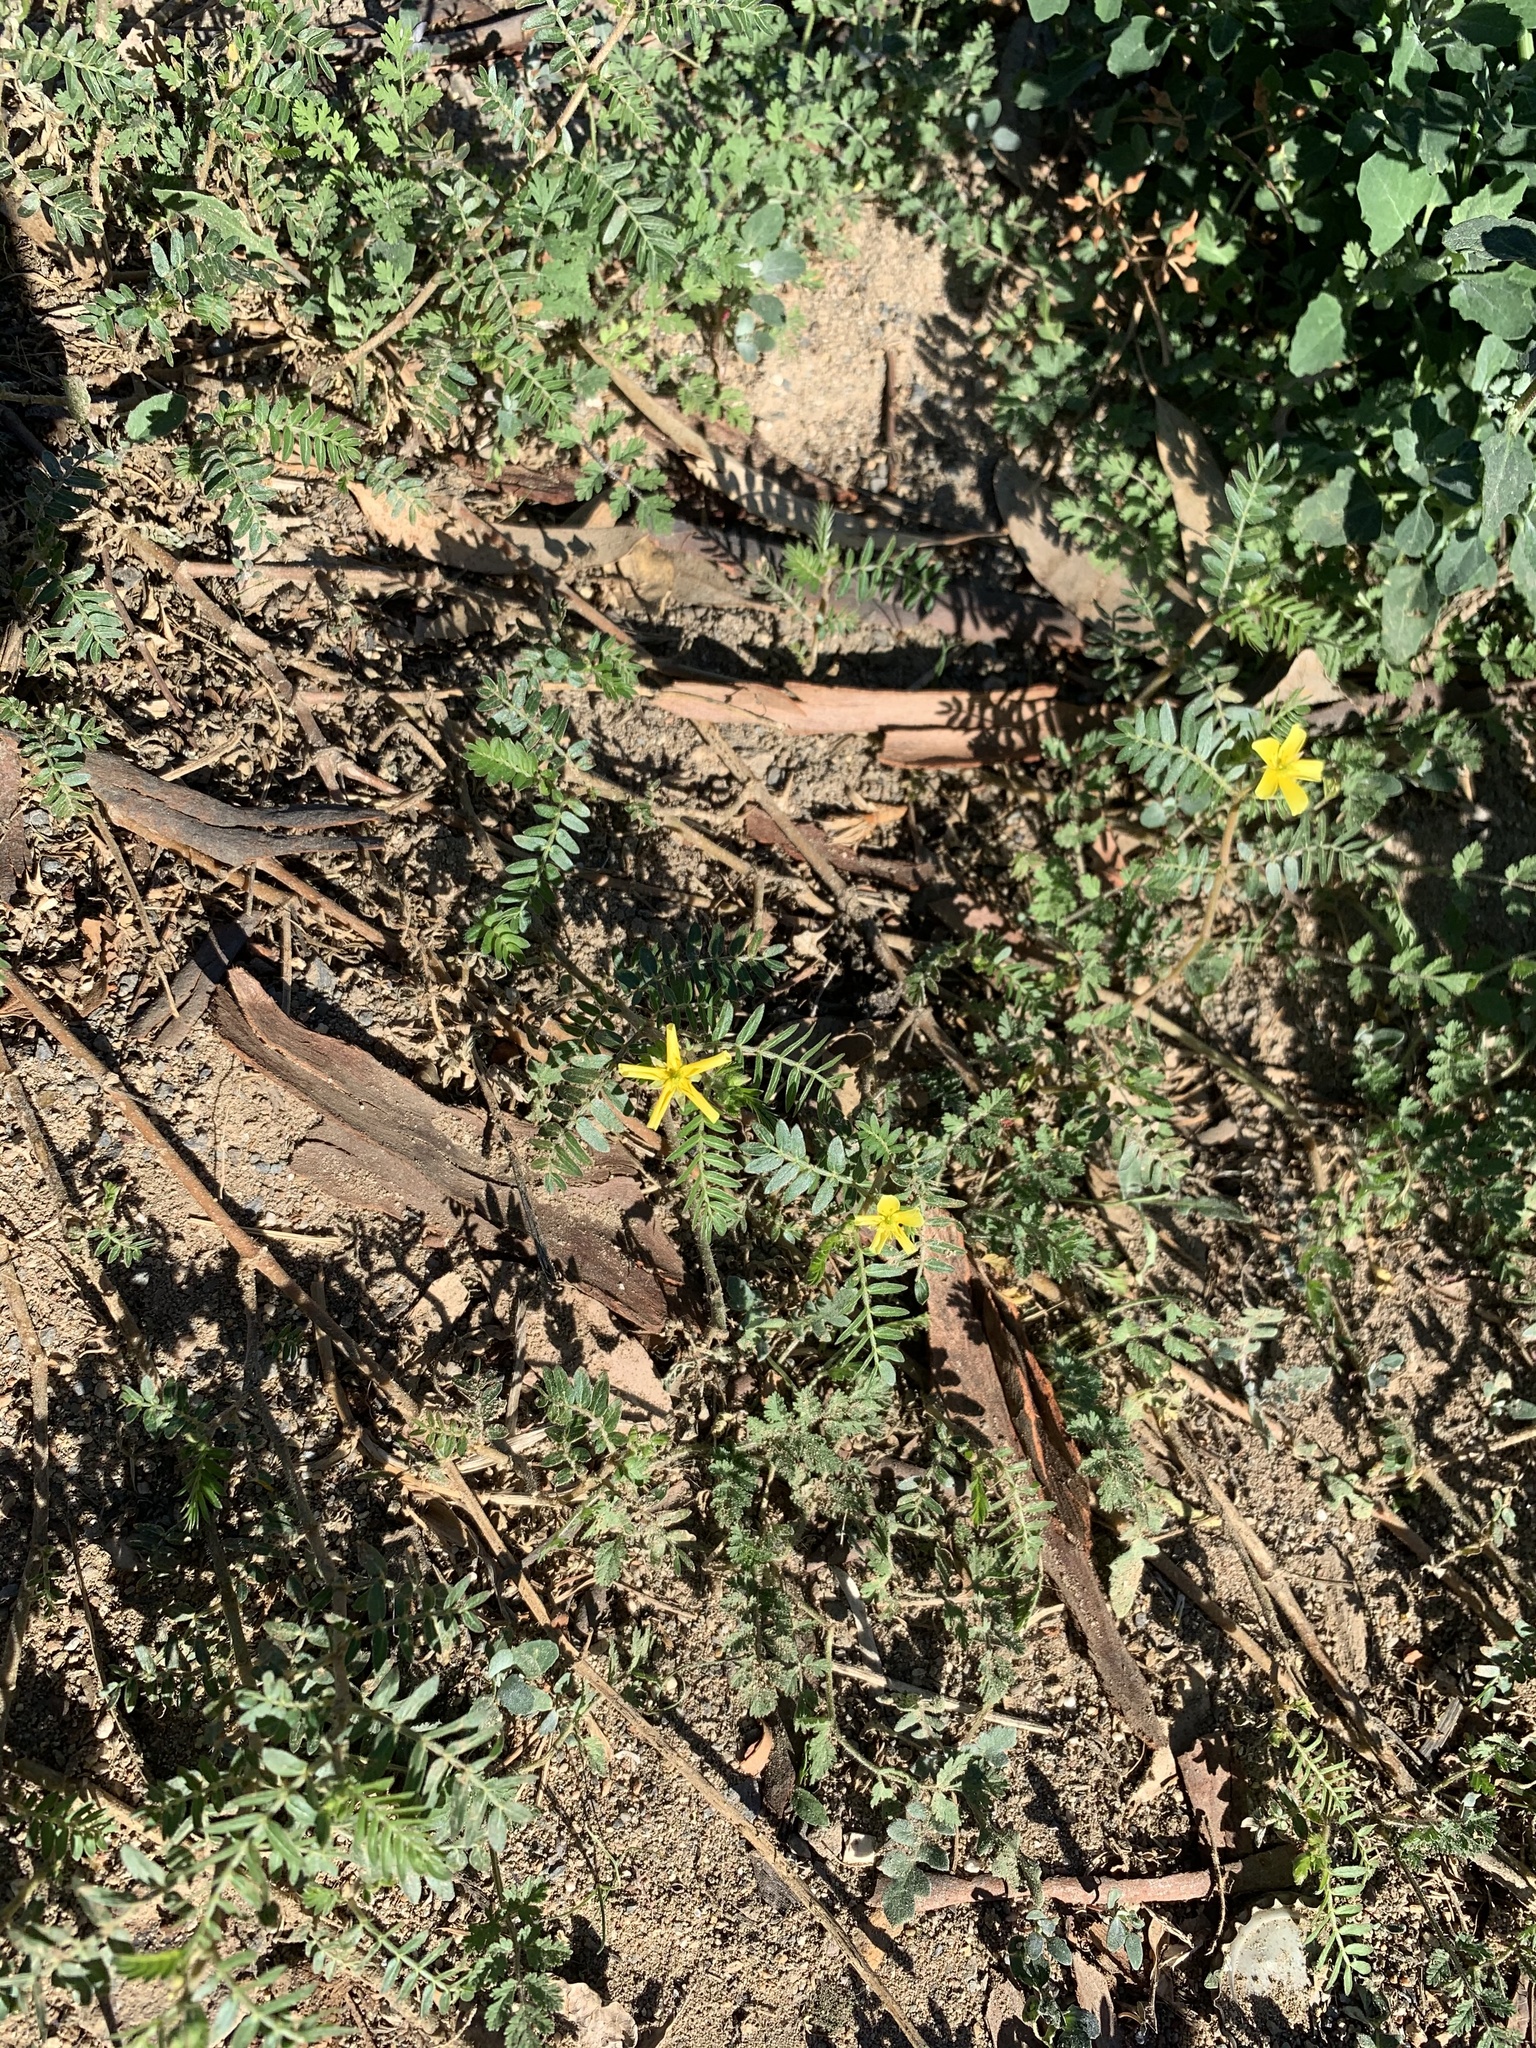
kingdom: Plantae
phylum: Tracheophyta
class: Magnoliopsida
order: Zygophyllales
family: Zygophyllaceae
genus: Tribulus
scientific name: Tribulus terrestris
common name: Puncturevine
